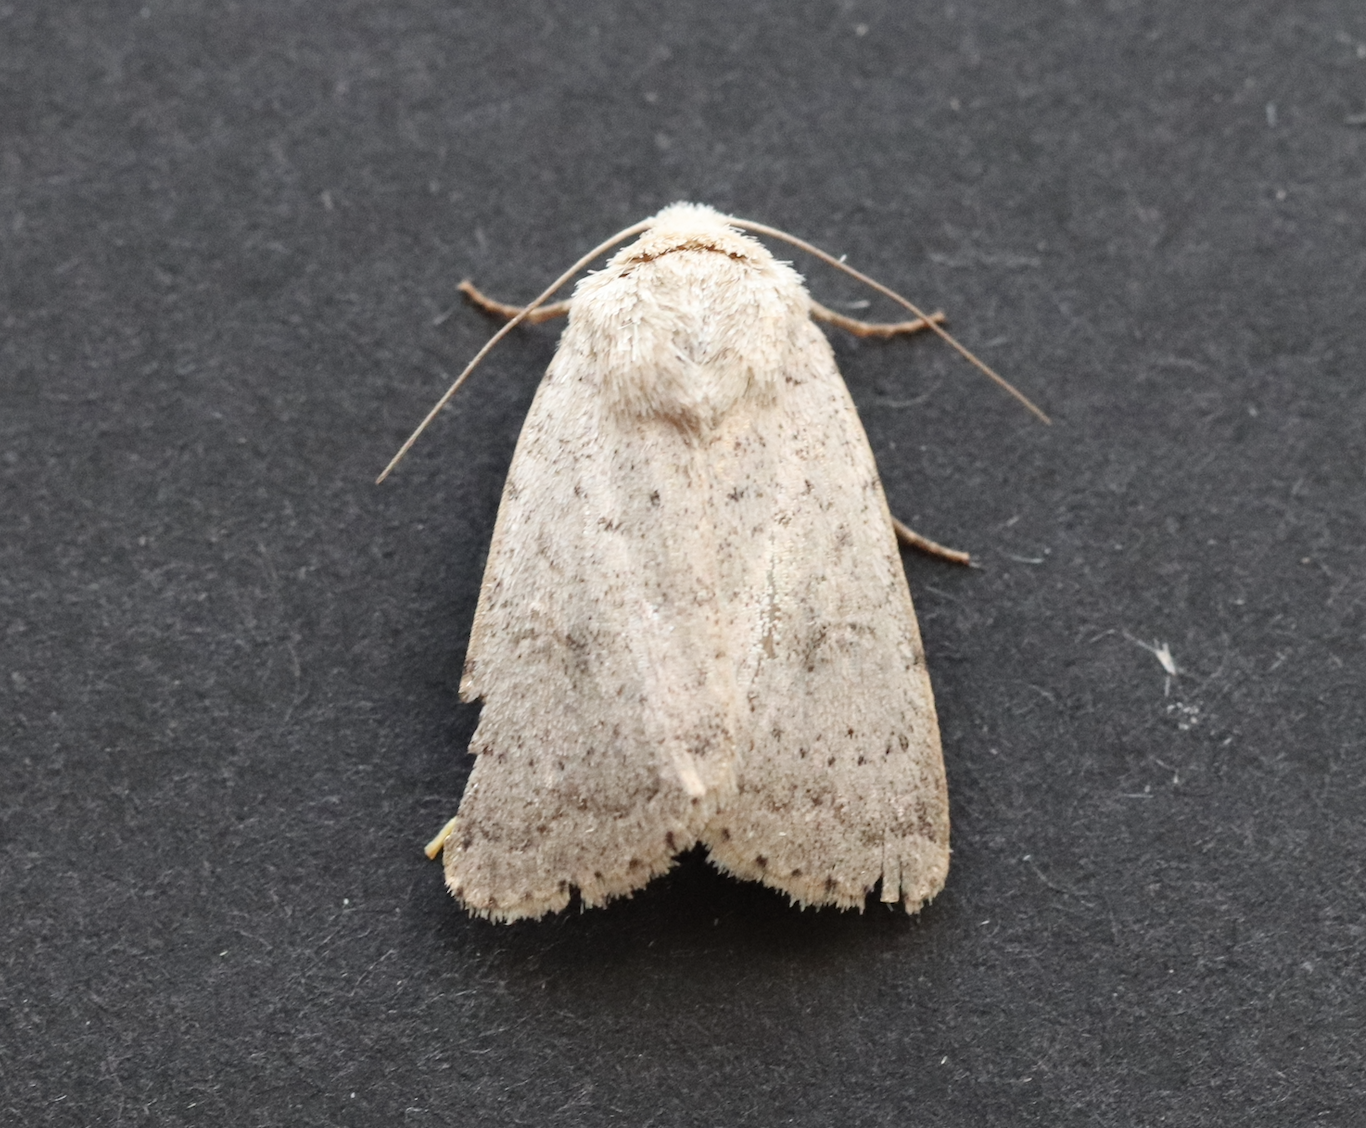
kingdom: Animalia
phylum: Arthropoda
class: Insecta
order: Lepidoptera
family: Noctuidae
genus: Hoplodrina
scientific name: Hoplodrina respersa
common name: Sprinkled rustic
